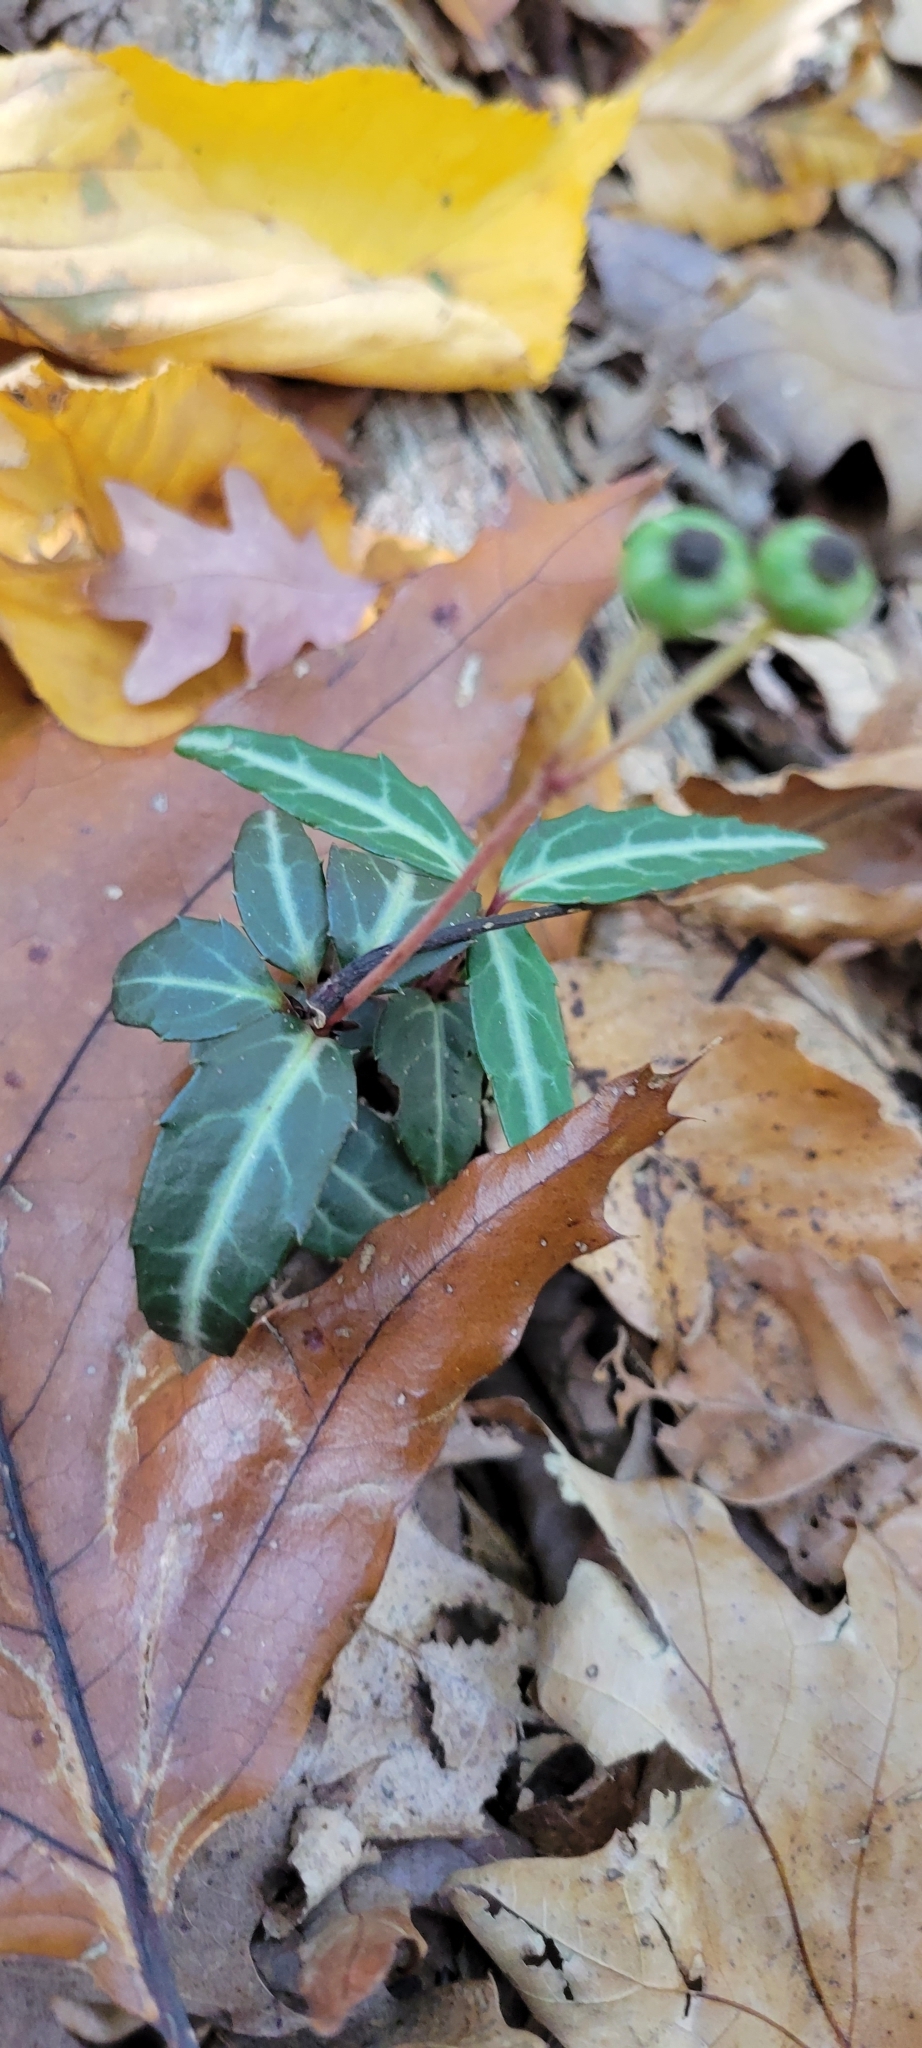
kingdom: Plantae
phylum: Tracheophyta
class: Magnoliopsida
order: Ericales
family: Ericaceae
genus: Chimaphila
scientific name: Chimaphila maculata
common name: Spotted pipsissewa
